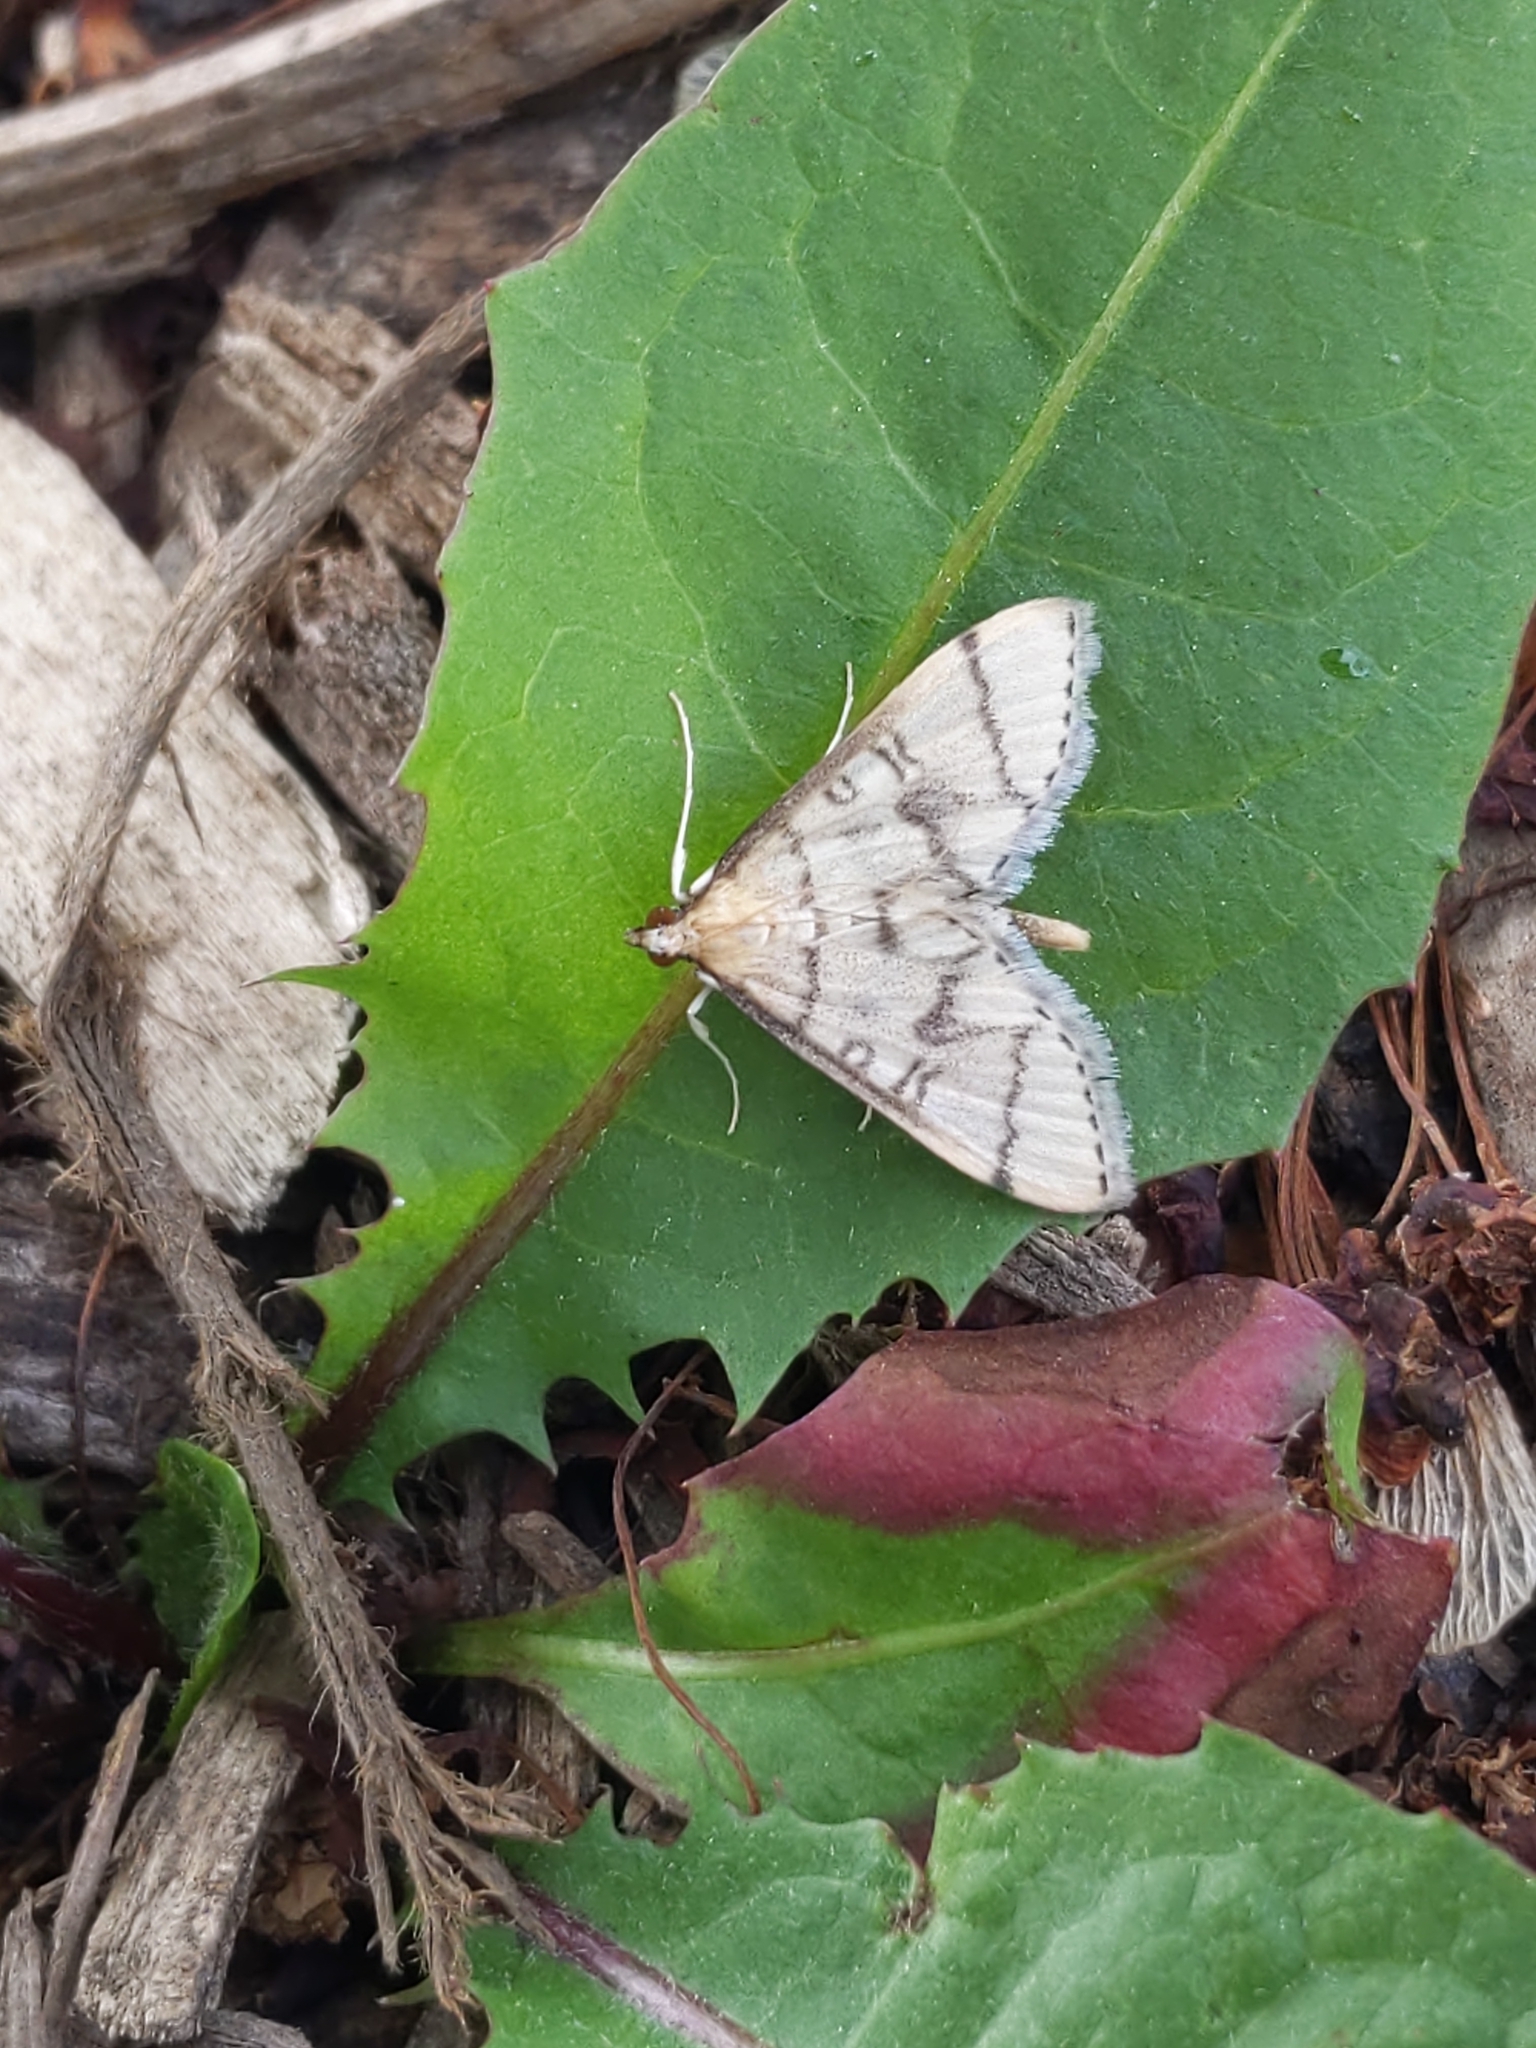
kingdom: Animalia
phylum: Arthropoda
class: Insecta
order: Lepidoptera
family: Crambidae
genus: Lamprosema
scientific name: Lamprosema Blepharomastix ranalis
